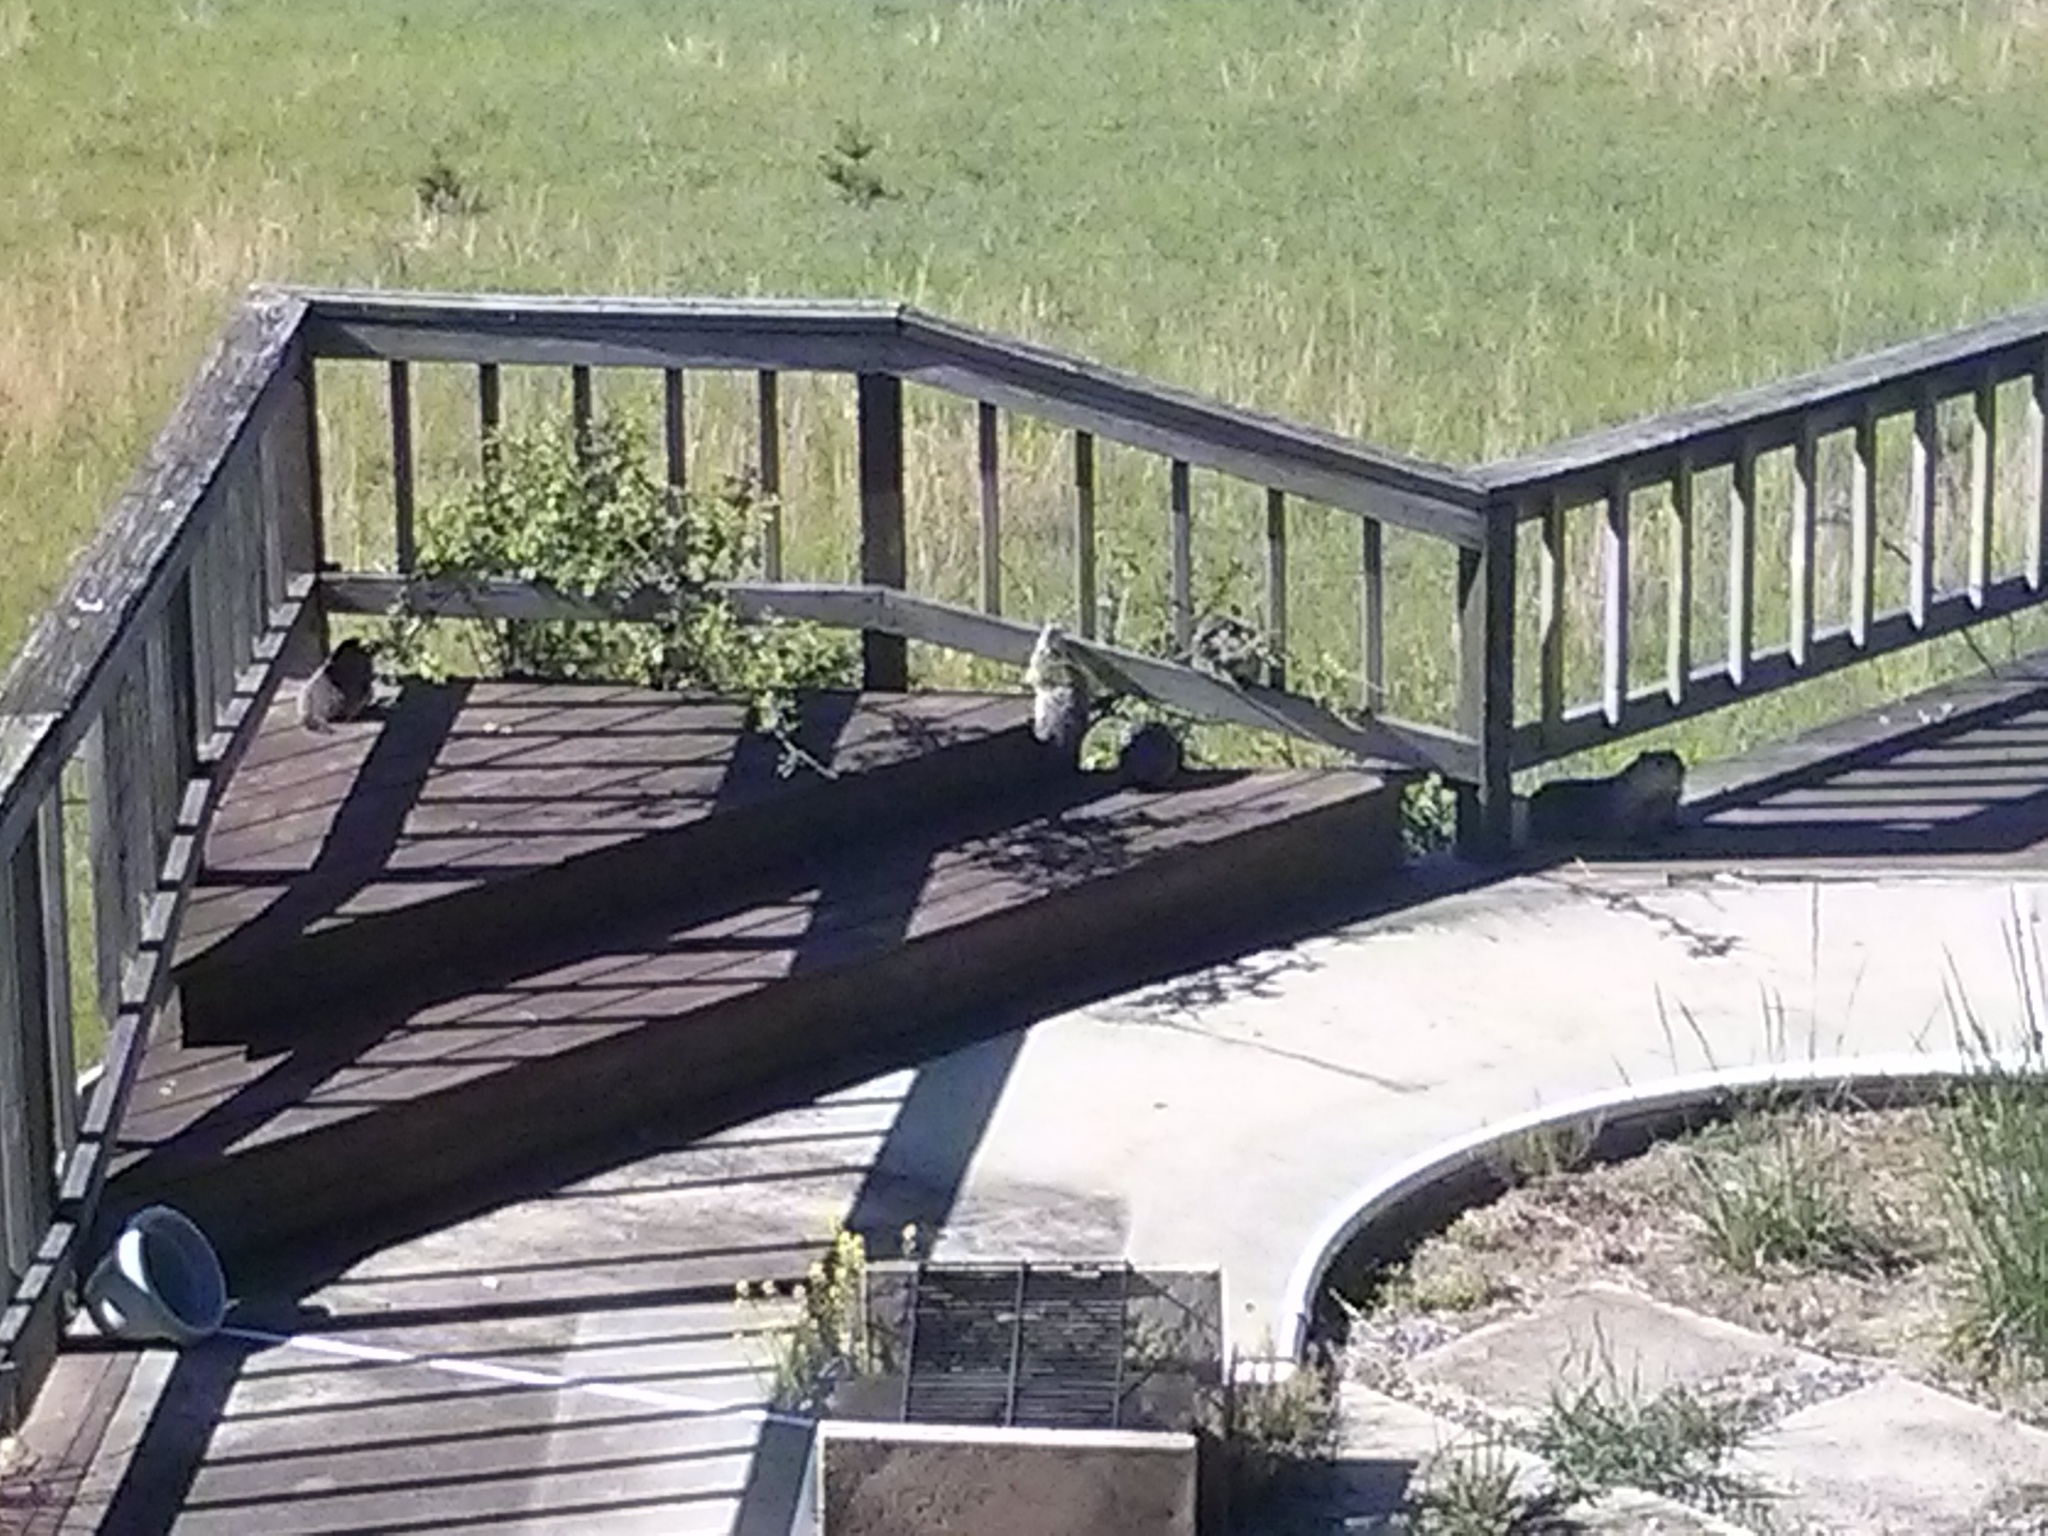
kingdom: Animalia
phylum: Chordata
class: Mammalia
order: Rodentia
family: Sciuridae
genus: Marmota
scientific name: Marmota monax
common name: Groundhog
